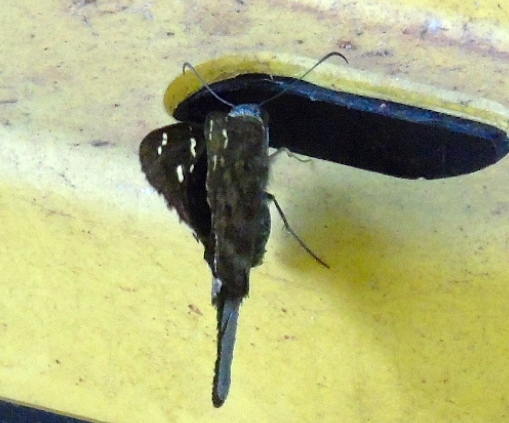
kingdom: Animalia
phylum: Arthropoda
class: Insecta
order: Lepidoptera
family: Hesperiidae
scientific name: Hesperiidae
